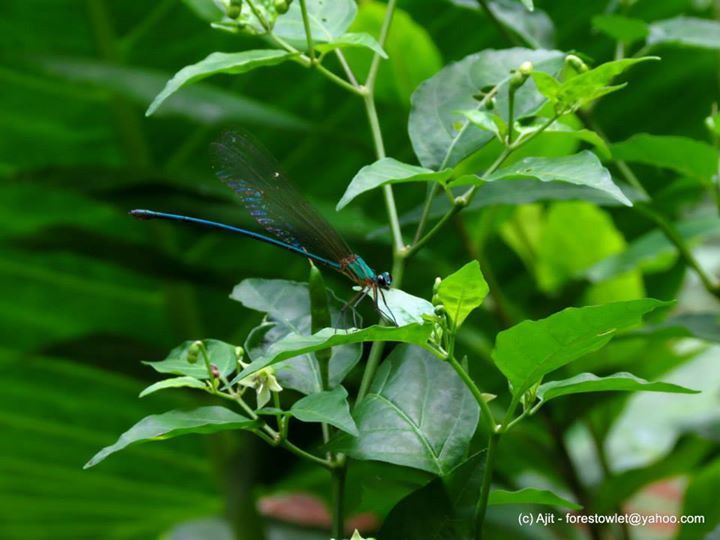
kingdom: Animalia
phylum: Arthropoda
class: Insecta
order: Odonata
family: Calopterygidae
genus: Vestalis
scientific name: Vestalis gracilis
